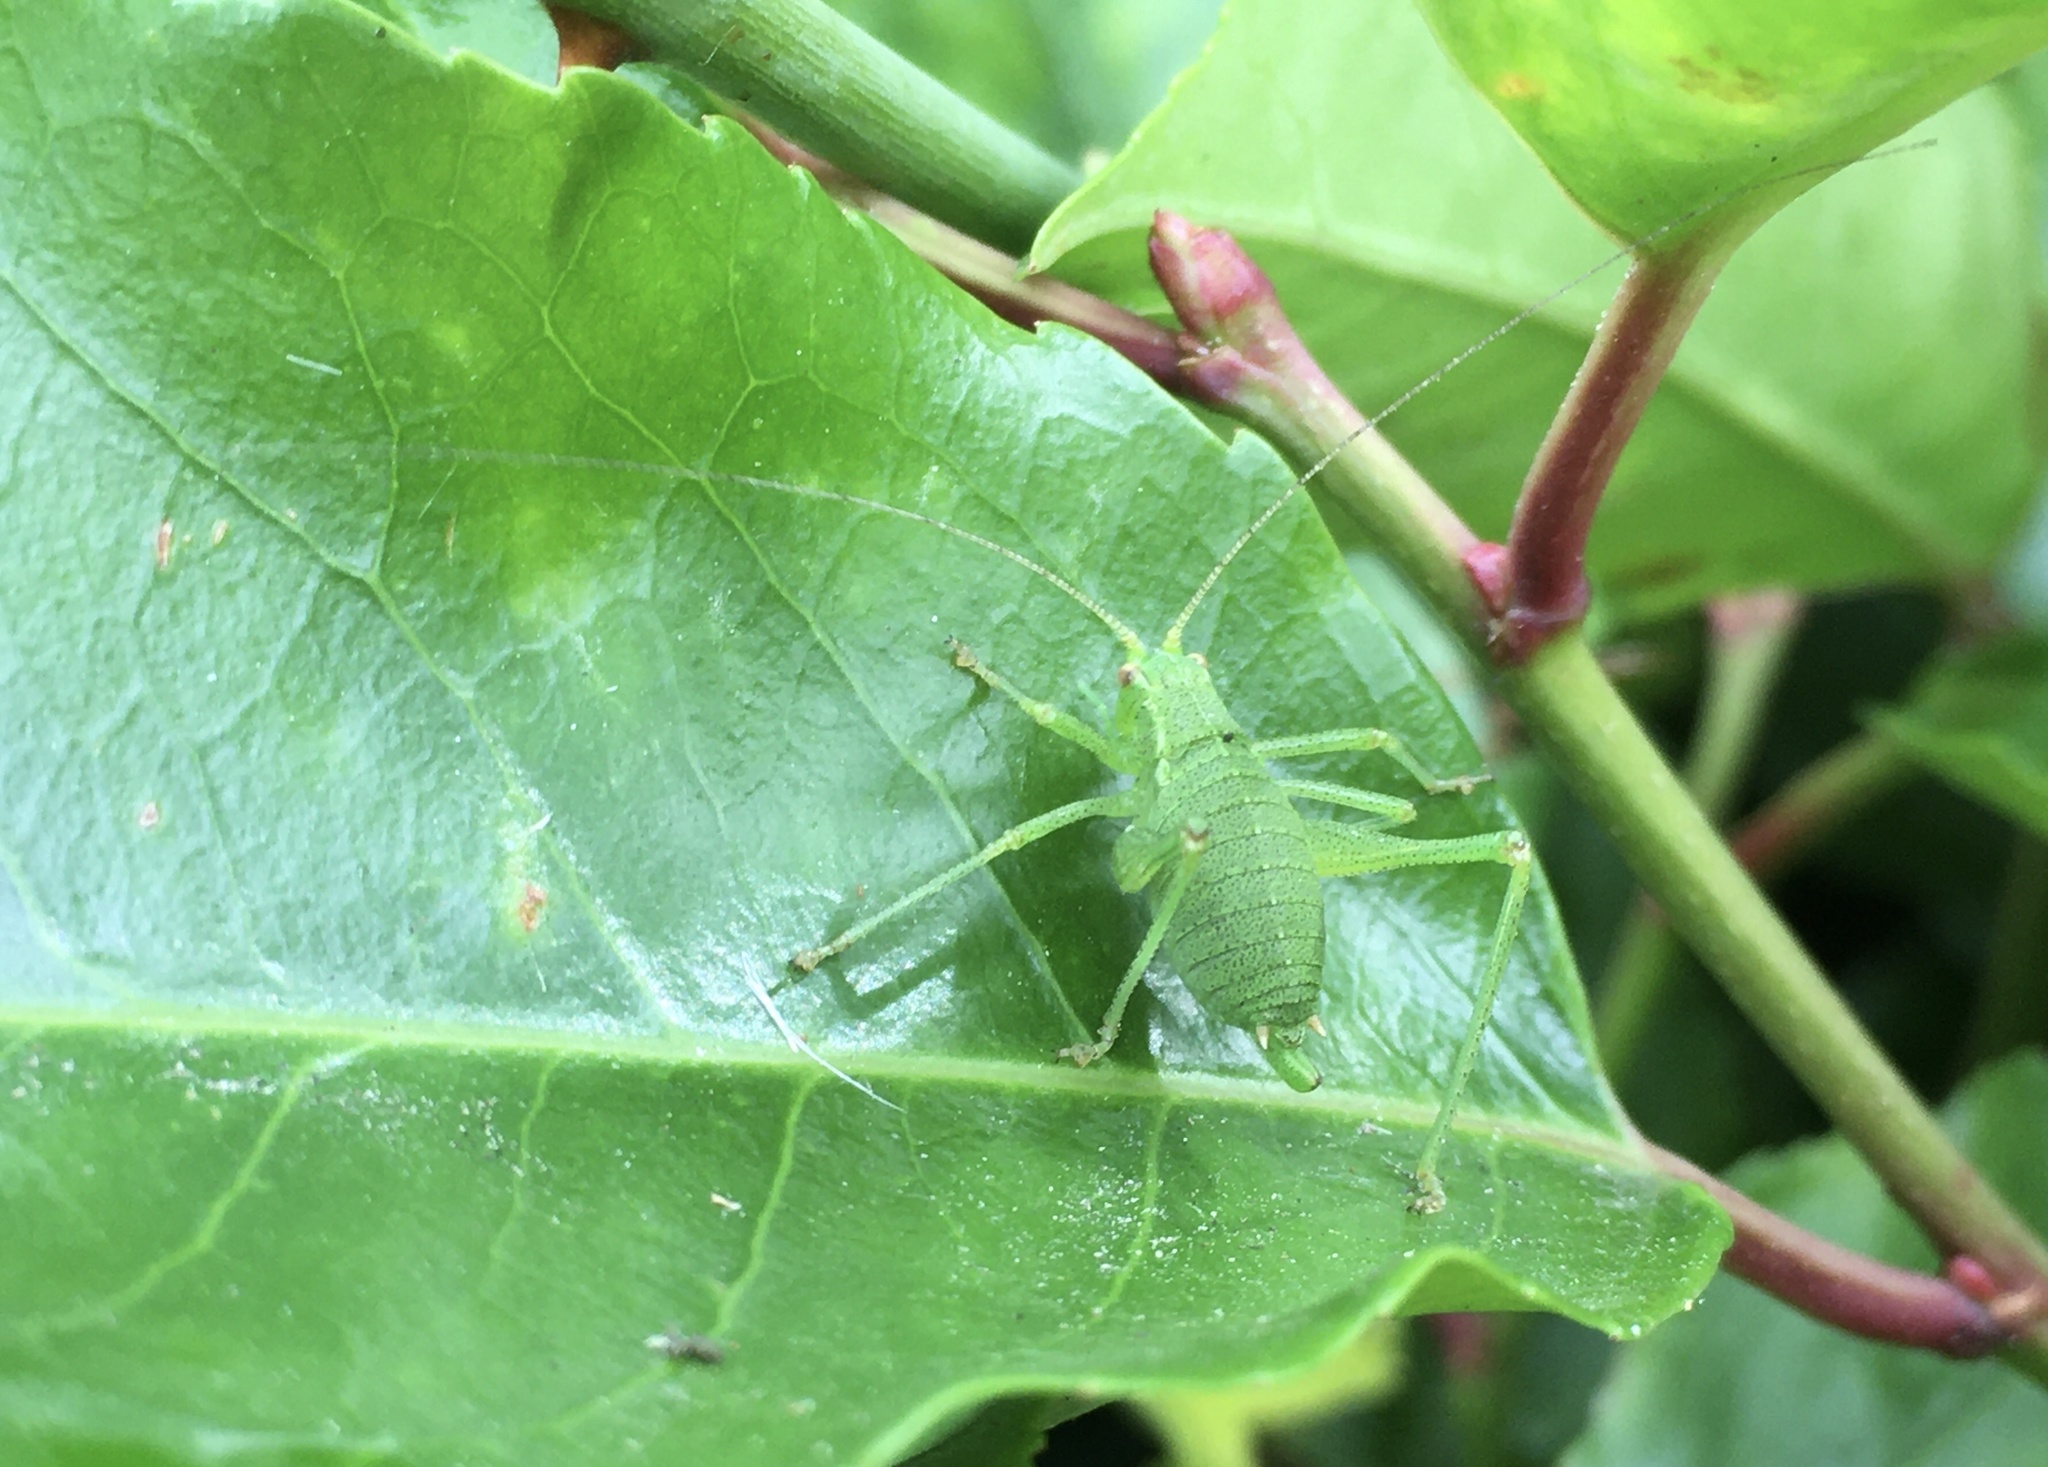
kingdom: Animalia
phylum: Arthropoda
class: Insecta
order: Orthoptera
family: Tettigoniidae
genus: Leptophyes
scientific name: Leptophyes punctatissima
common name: Speckled bush-cricket
